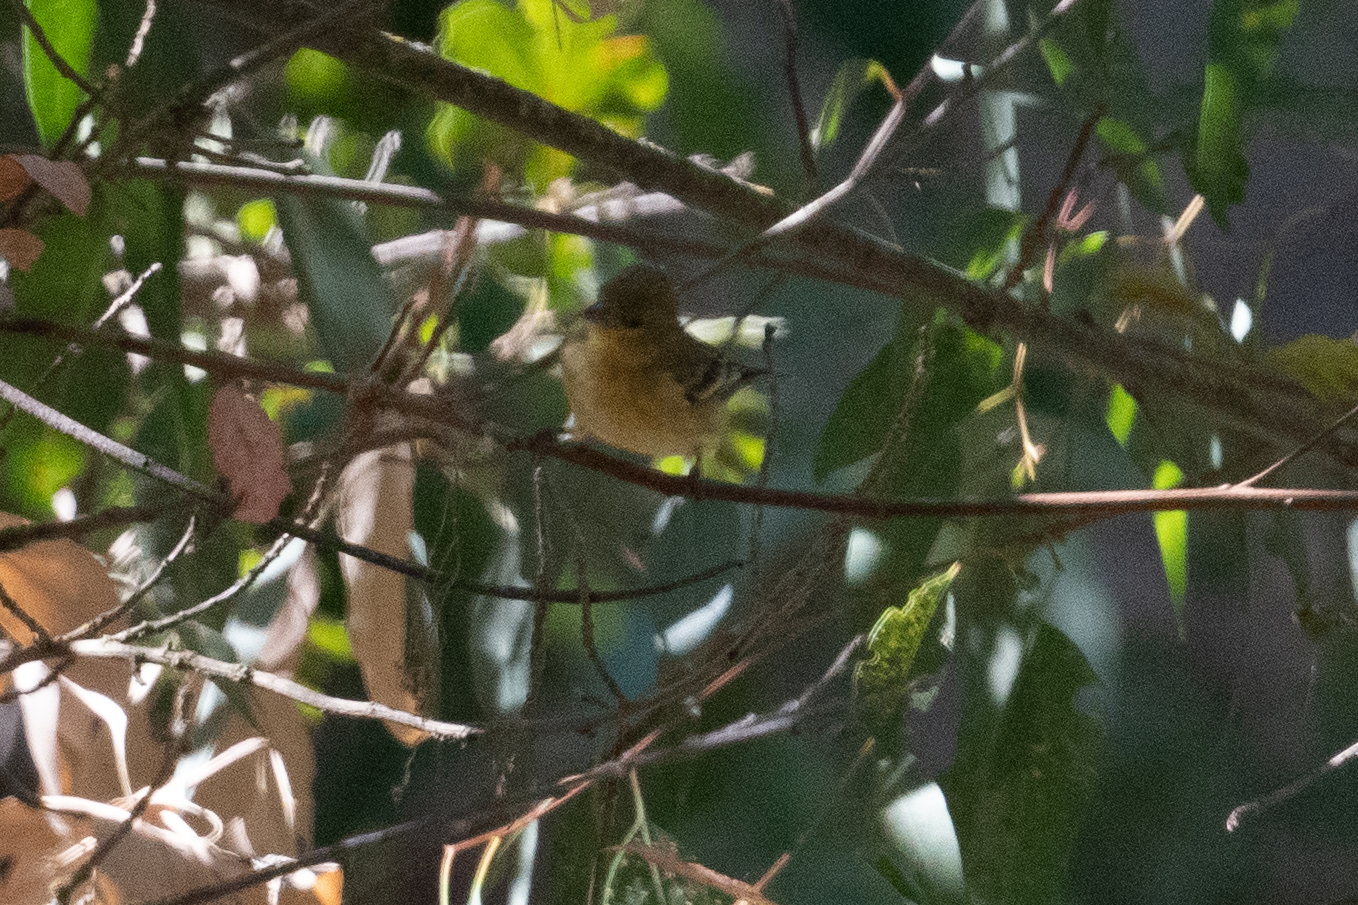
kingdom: Animalia
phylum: Chordata
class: Aves
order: Passeriformes
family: Fringillidae
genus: Spinus
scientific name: Spinus psaltria
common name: Lesser goldfinch
